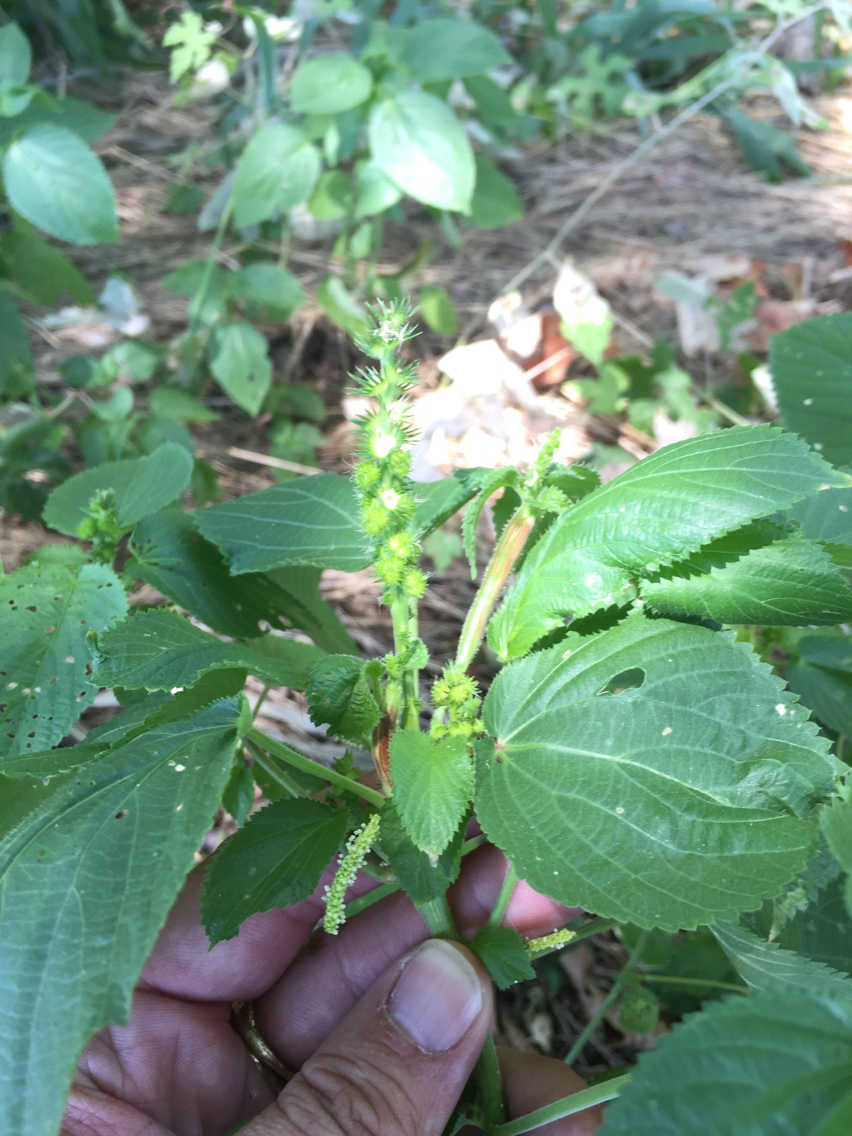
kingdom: Plantae
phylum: Tracheophyta
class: Magnoliopsida
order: Malpighiales
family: Euphorbiaceae
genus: Acalypha
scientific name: Acalypha ostryifolia
